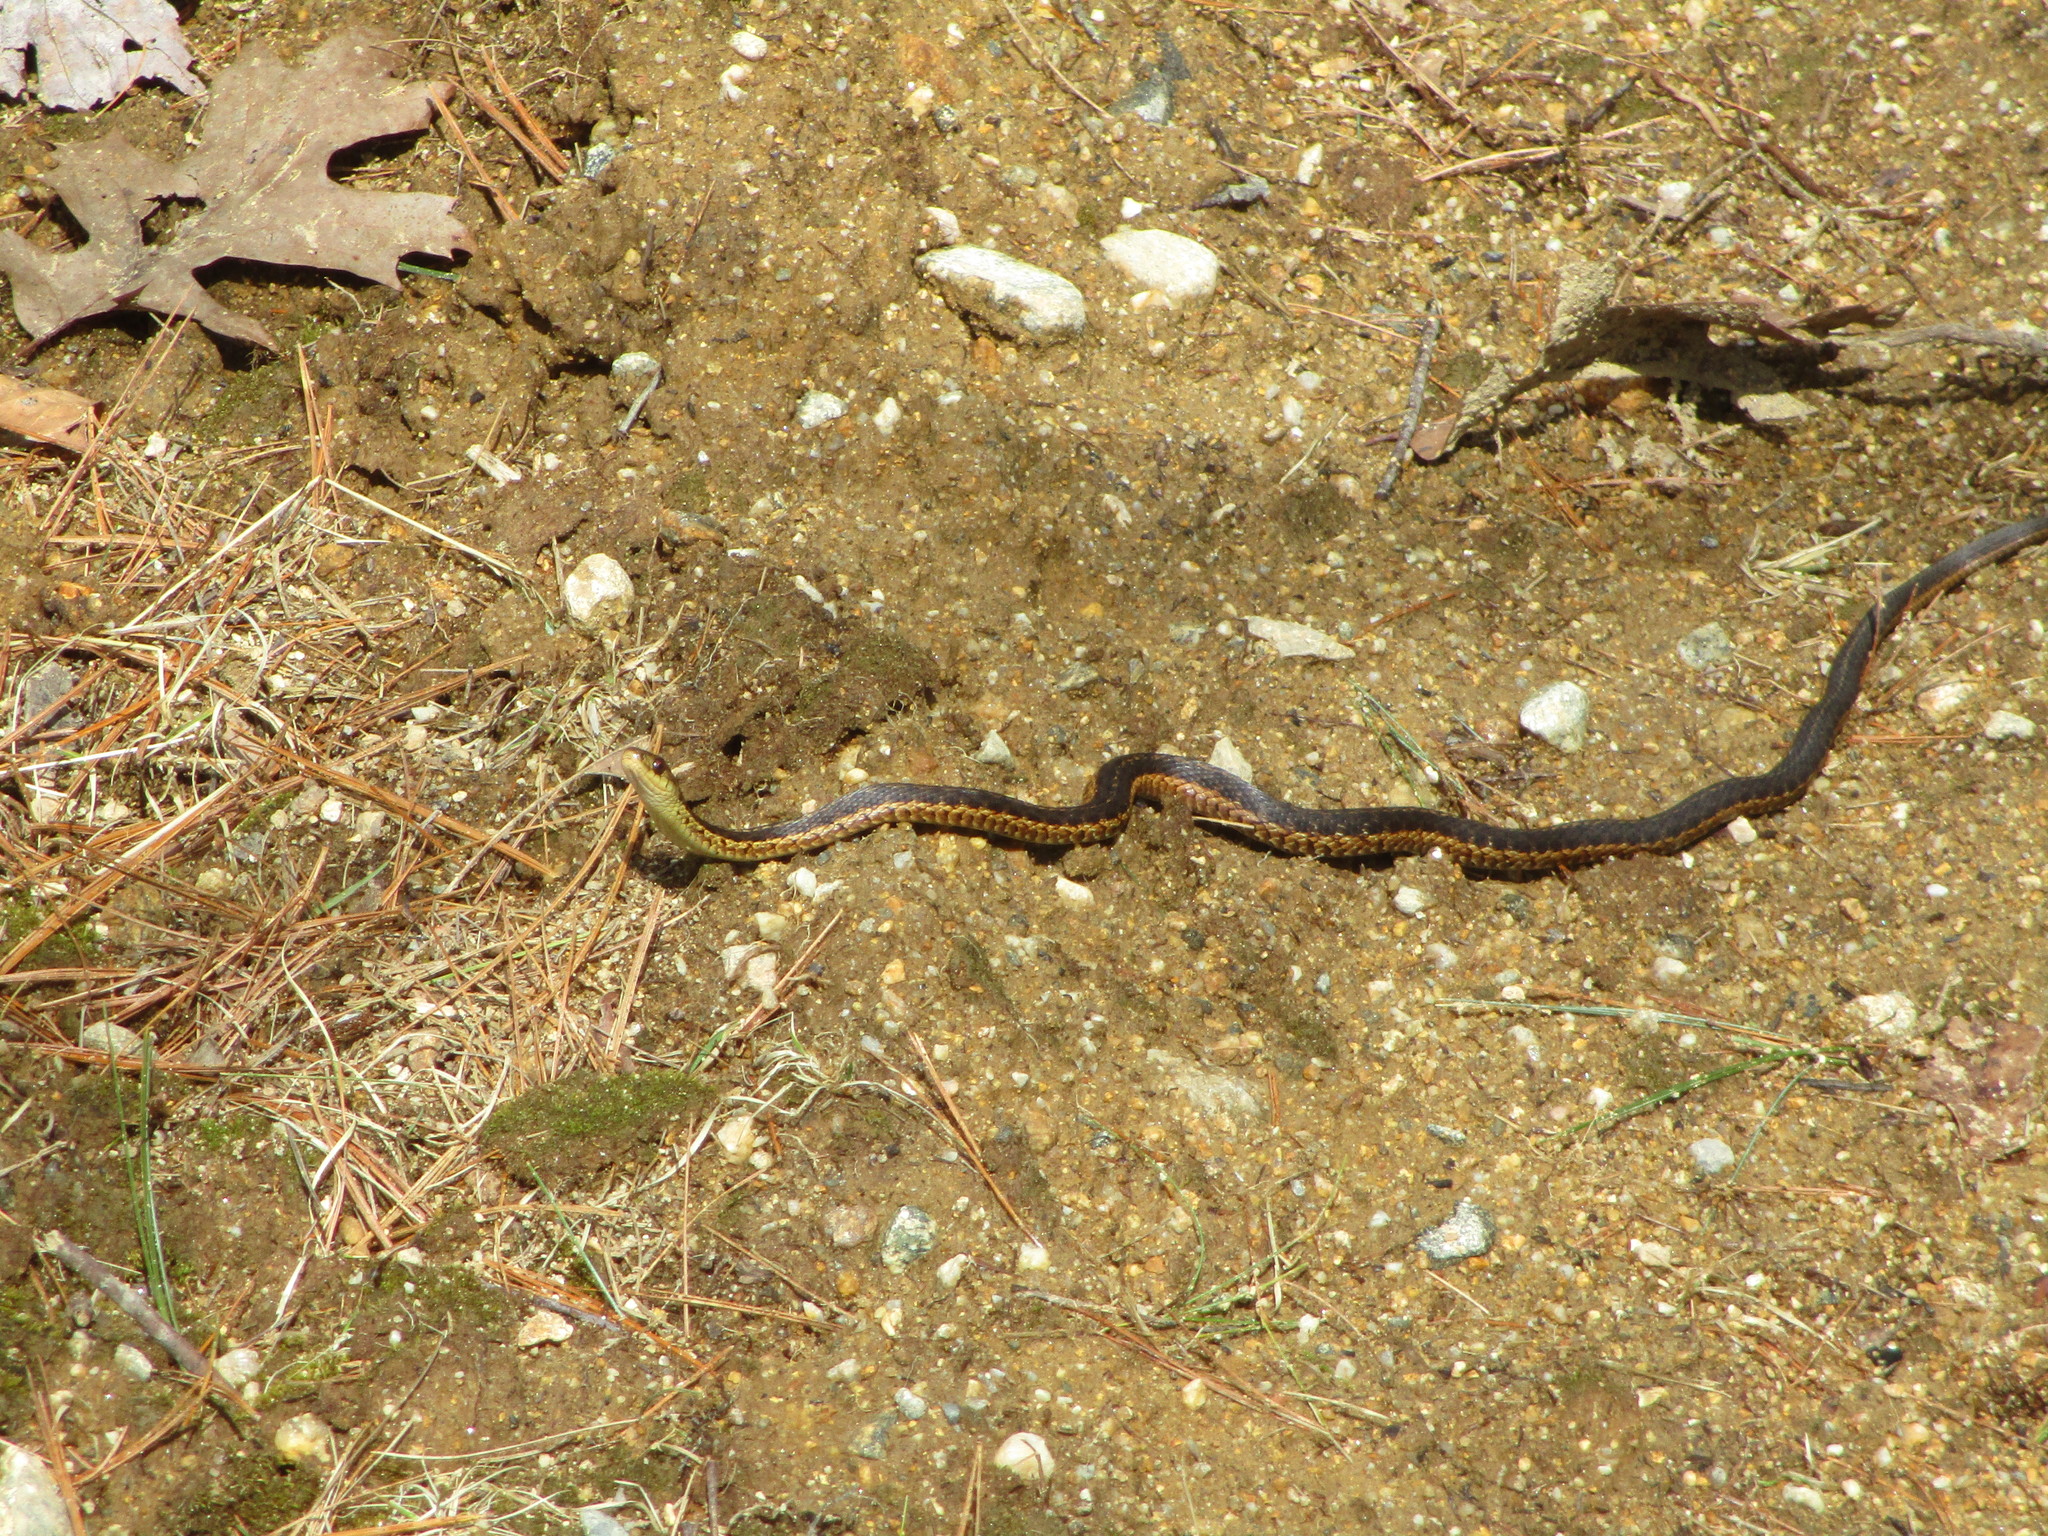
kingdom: Animalia
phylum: Chordata
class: Squamata
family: Colubridae
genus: Thamnophis
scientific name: Thamnophis sirtalis
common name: Common garter snake
